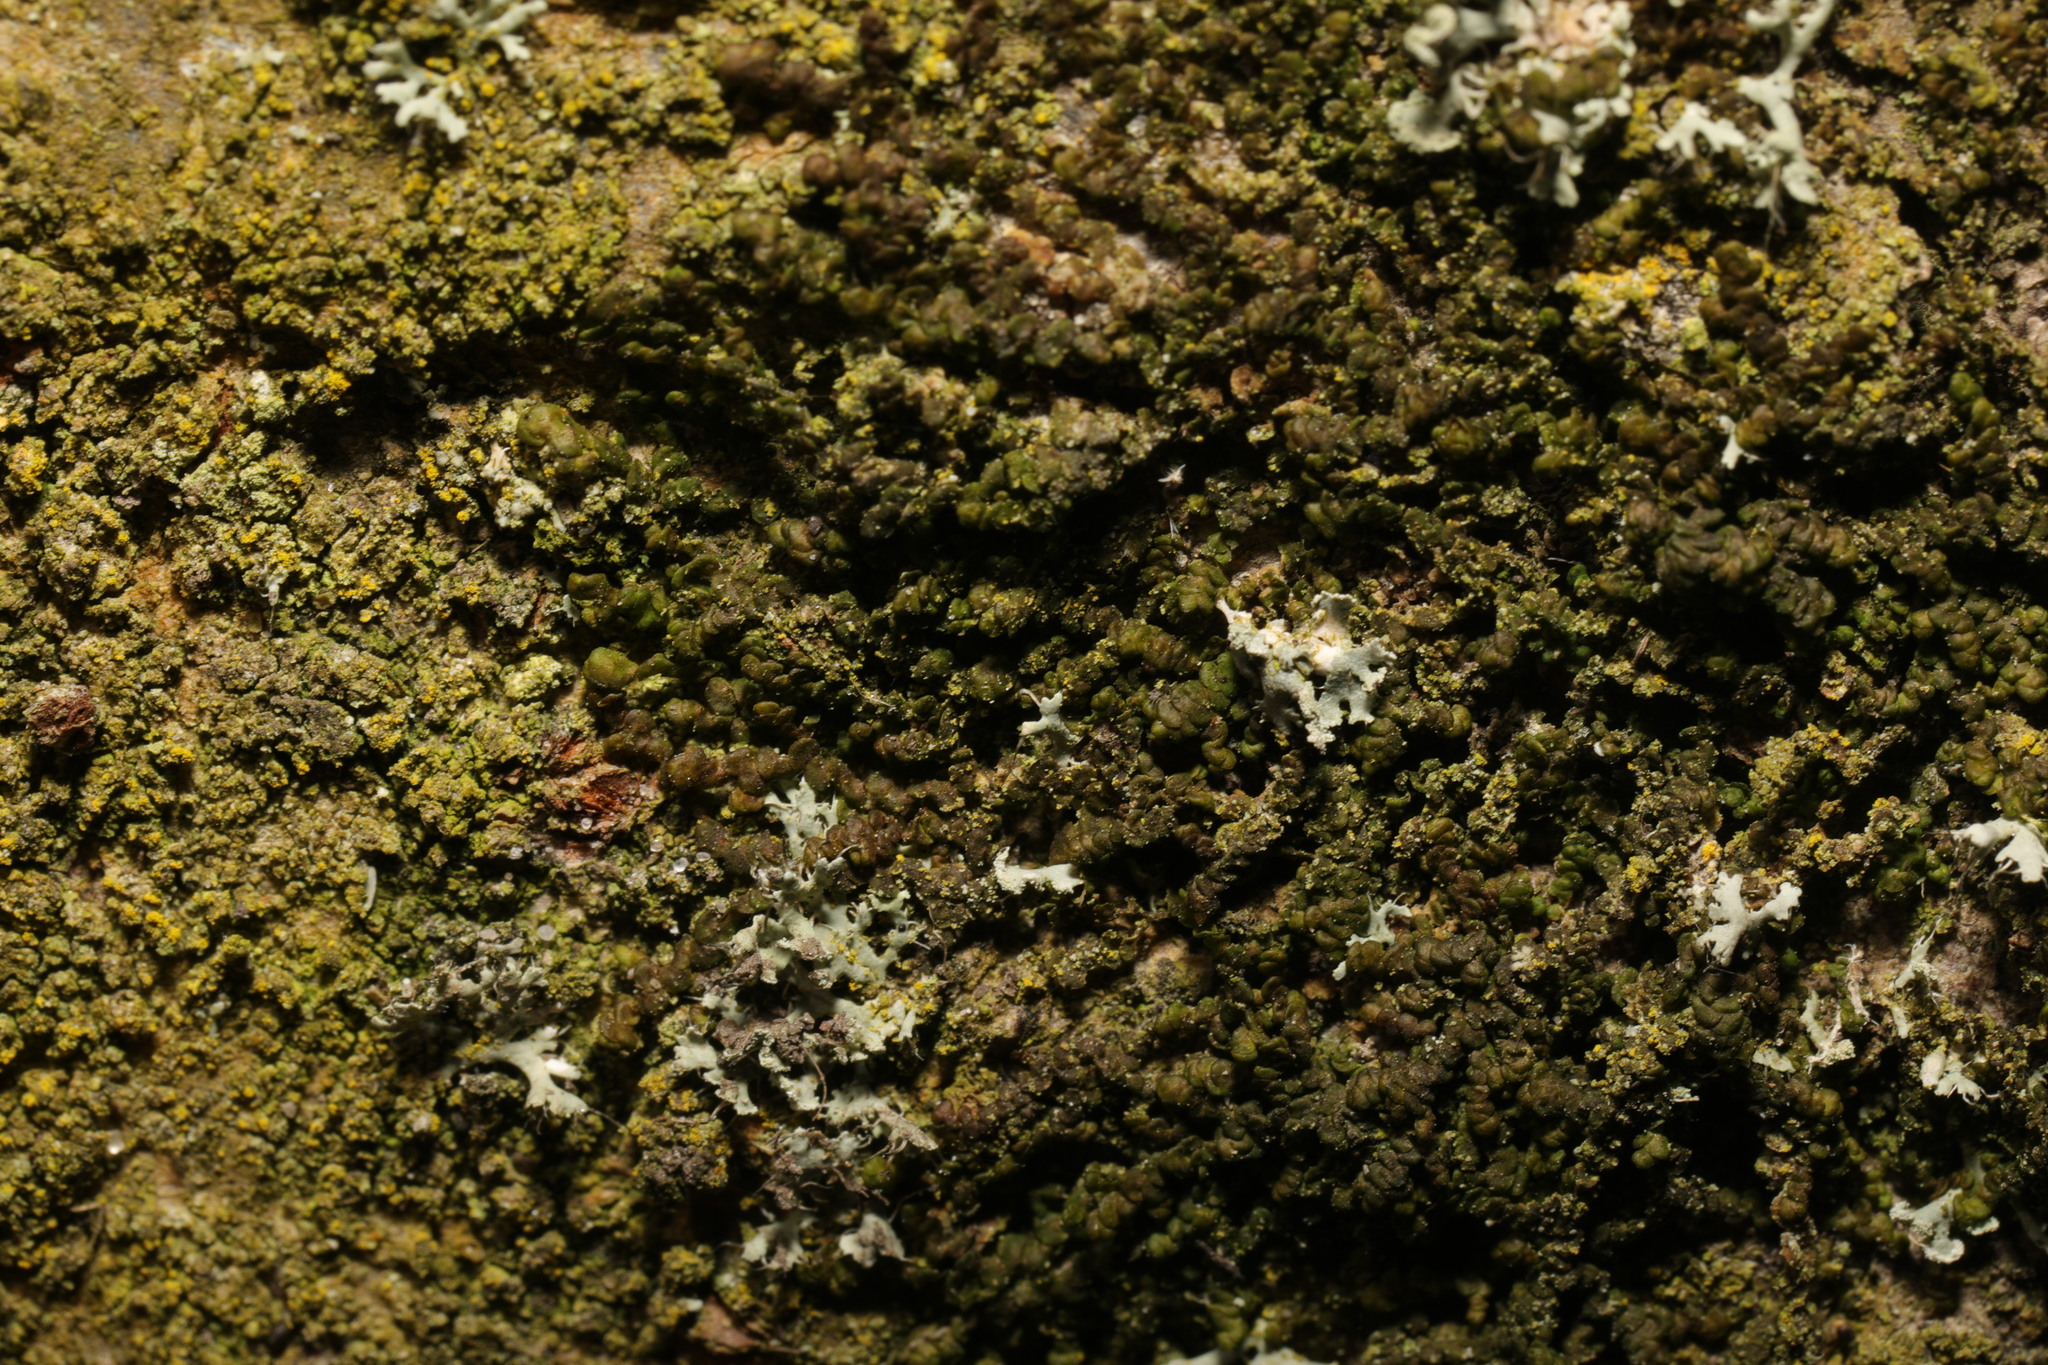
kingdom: Plantae
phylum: Marchantiophyta
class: Jungermanniopsida
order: Porellales
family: Frullaniaceae
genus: Frullania
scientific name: Frullania dilatata
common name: Dilated scalewort
